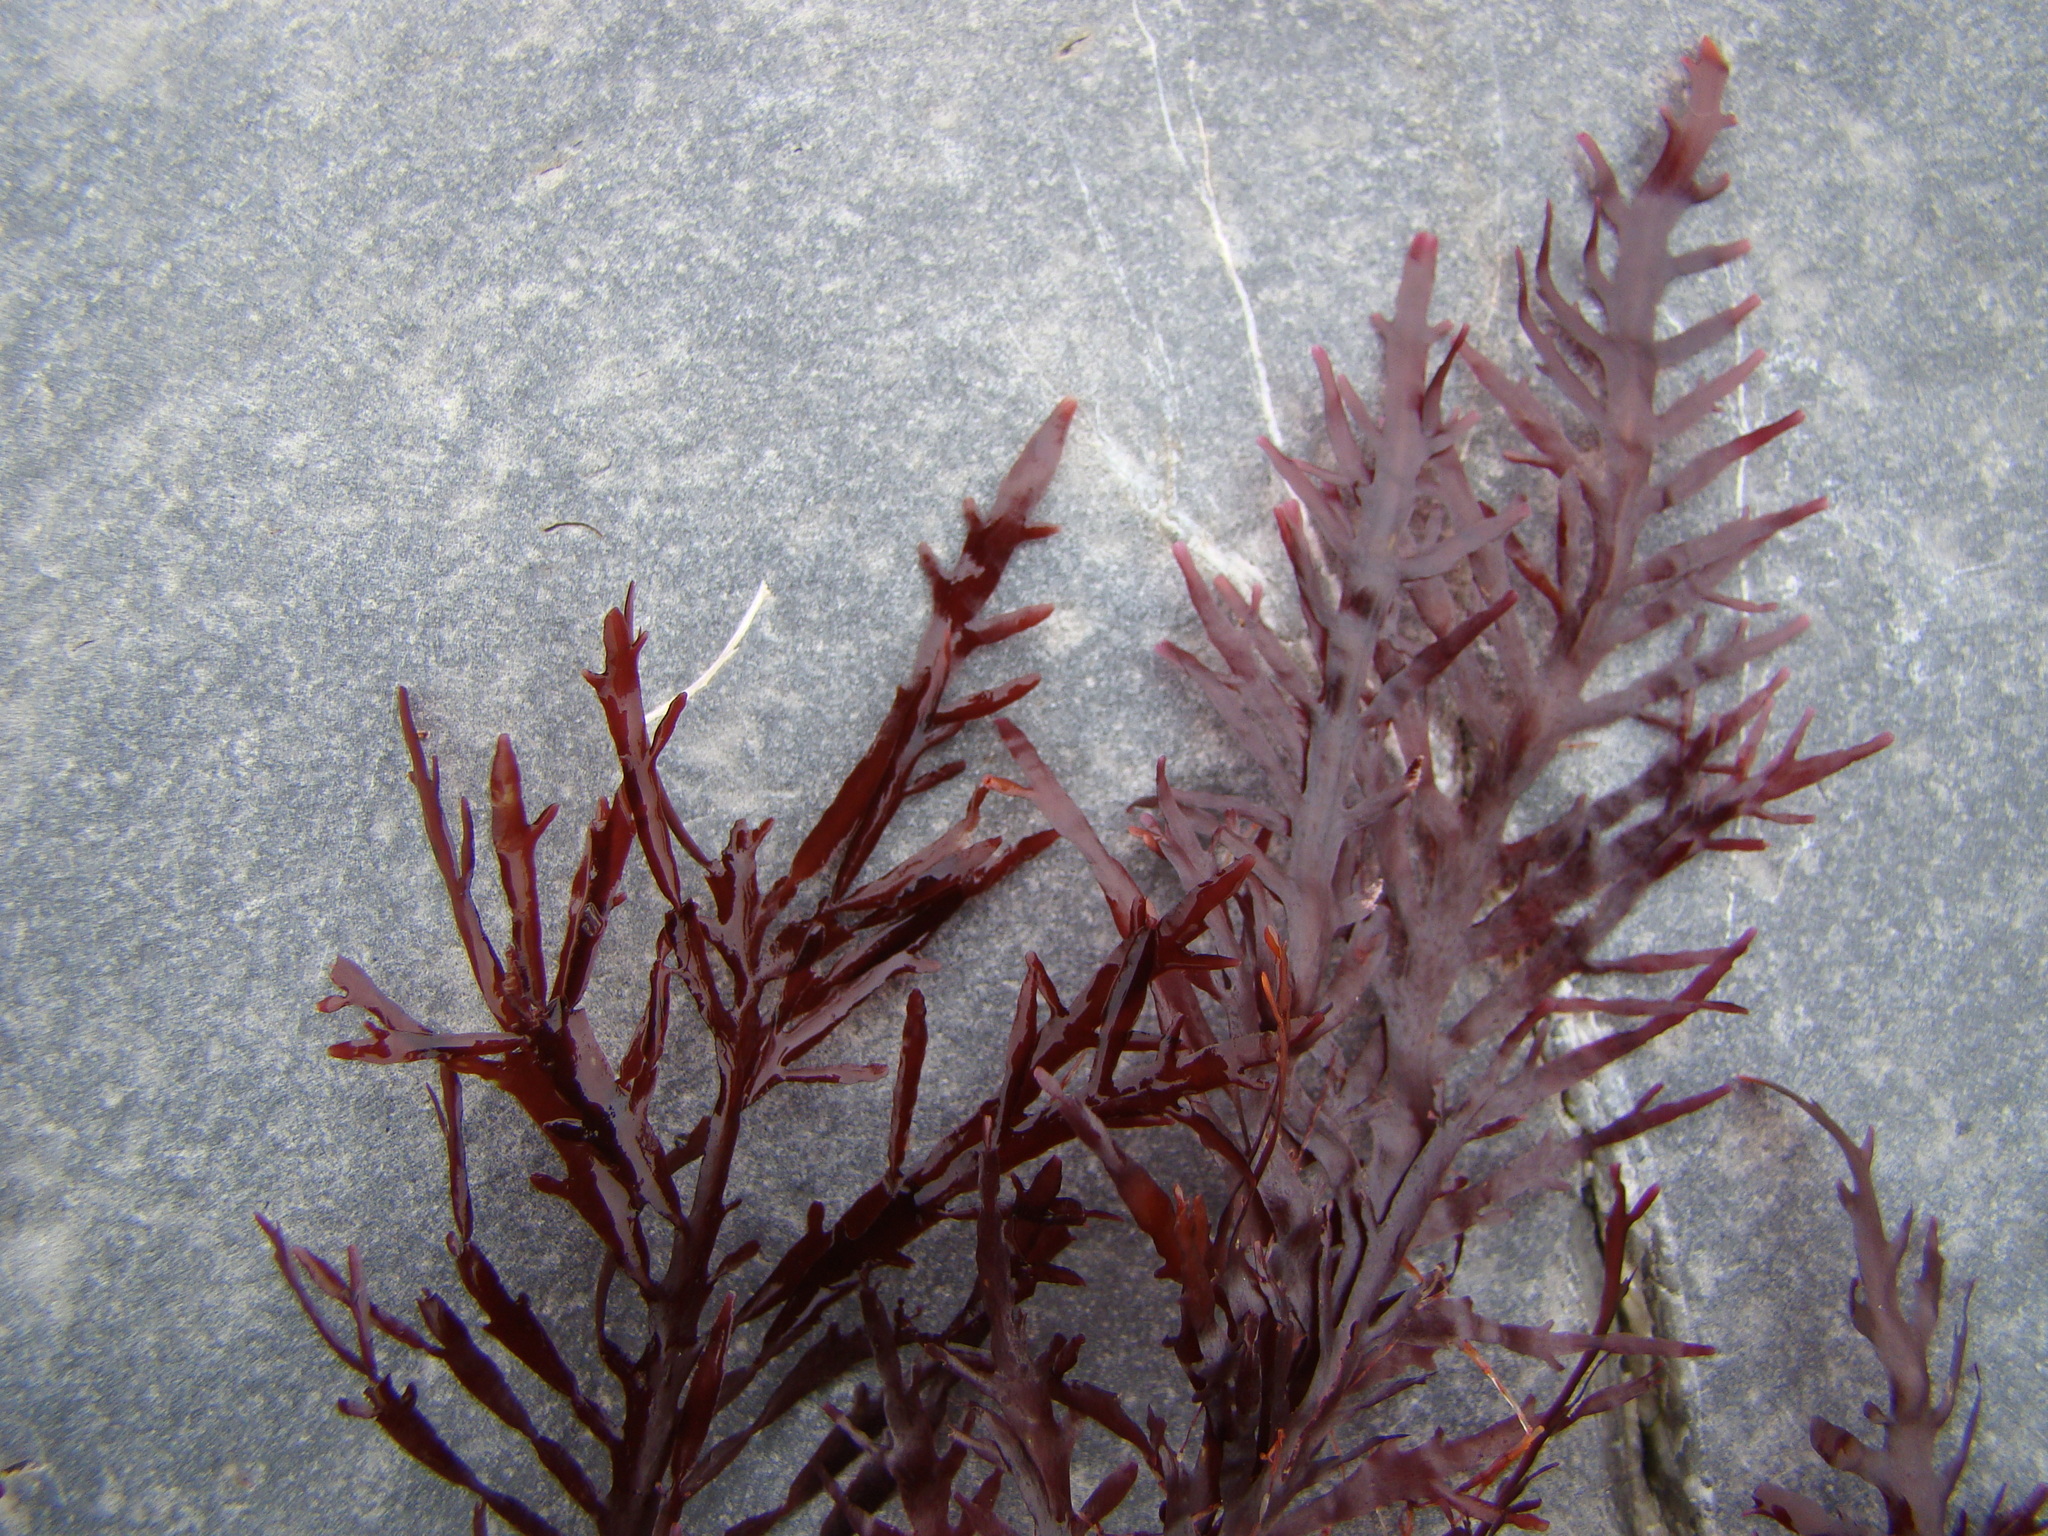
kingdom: Plantae
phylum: Rhodophyta
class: Florideophyceae
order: Gelidiales
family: Pterocladiaceae
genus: Pterocladiella
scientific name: Pterocladiella capillacea
